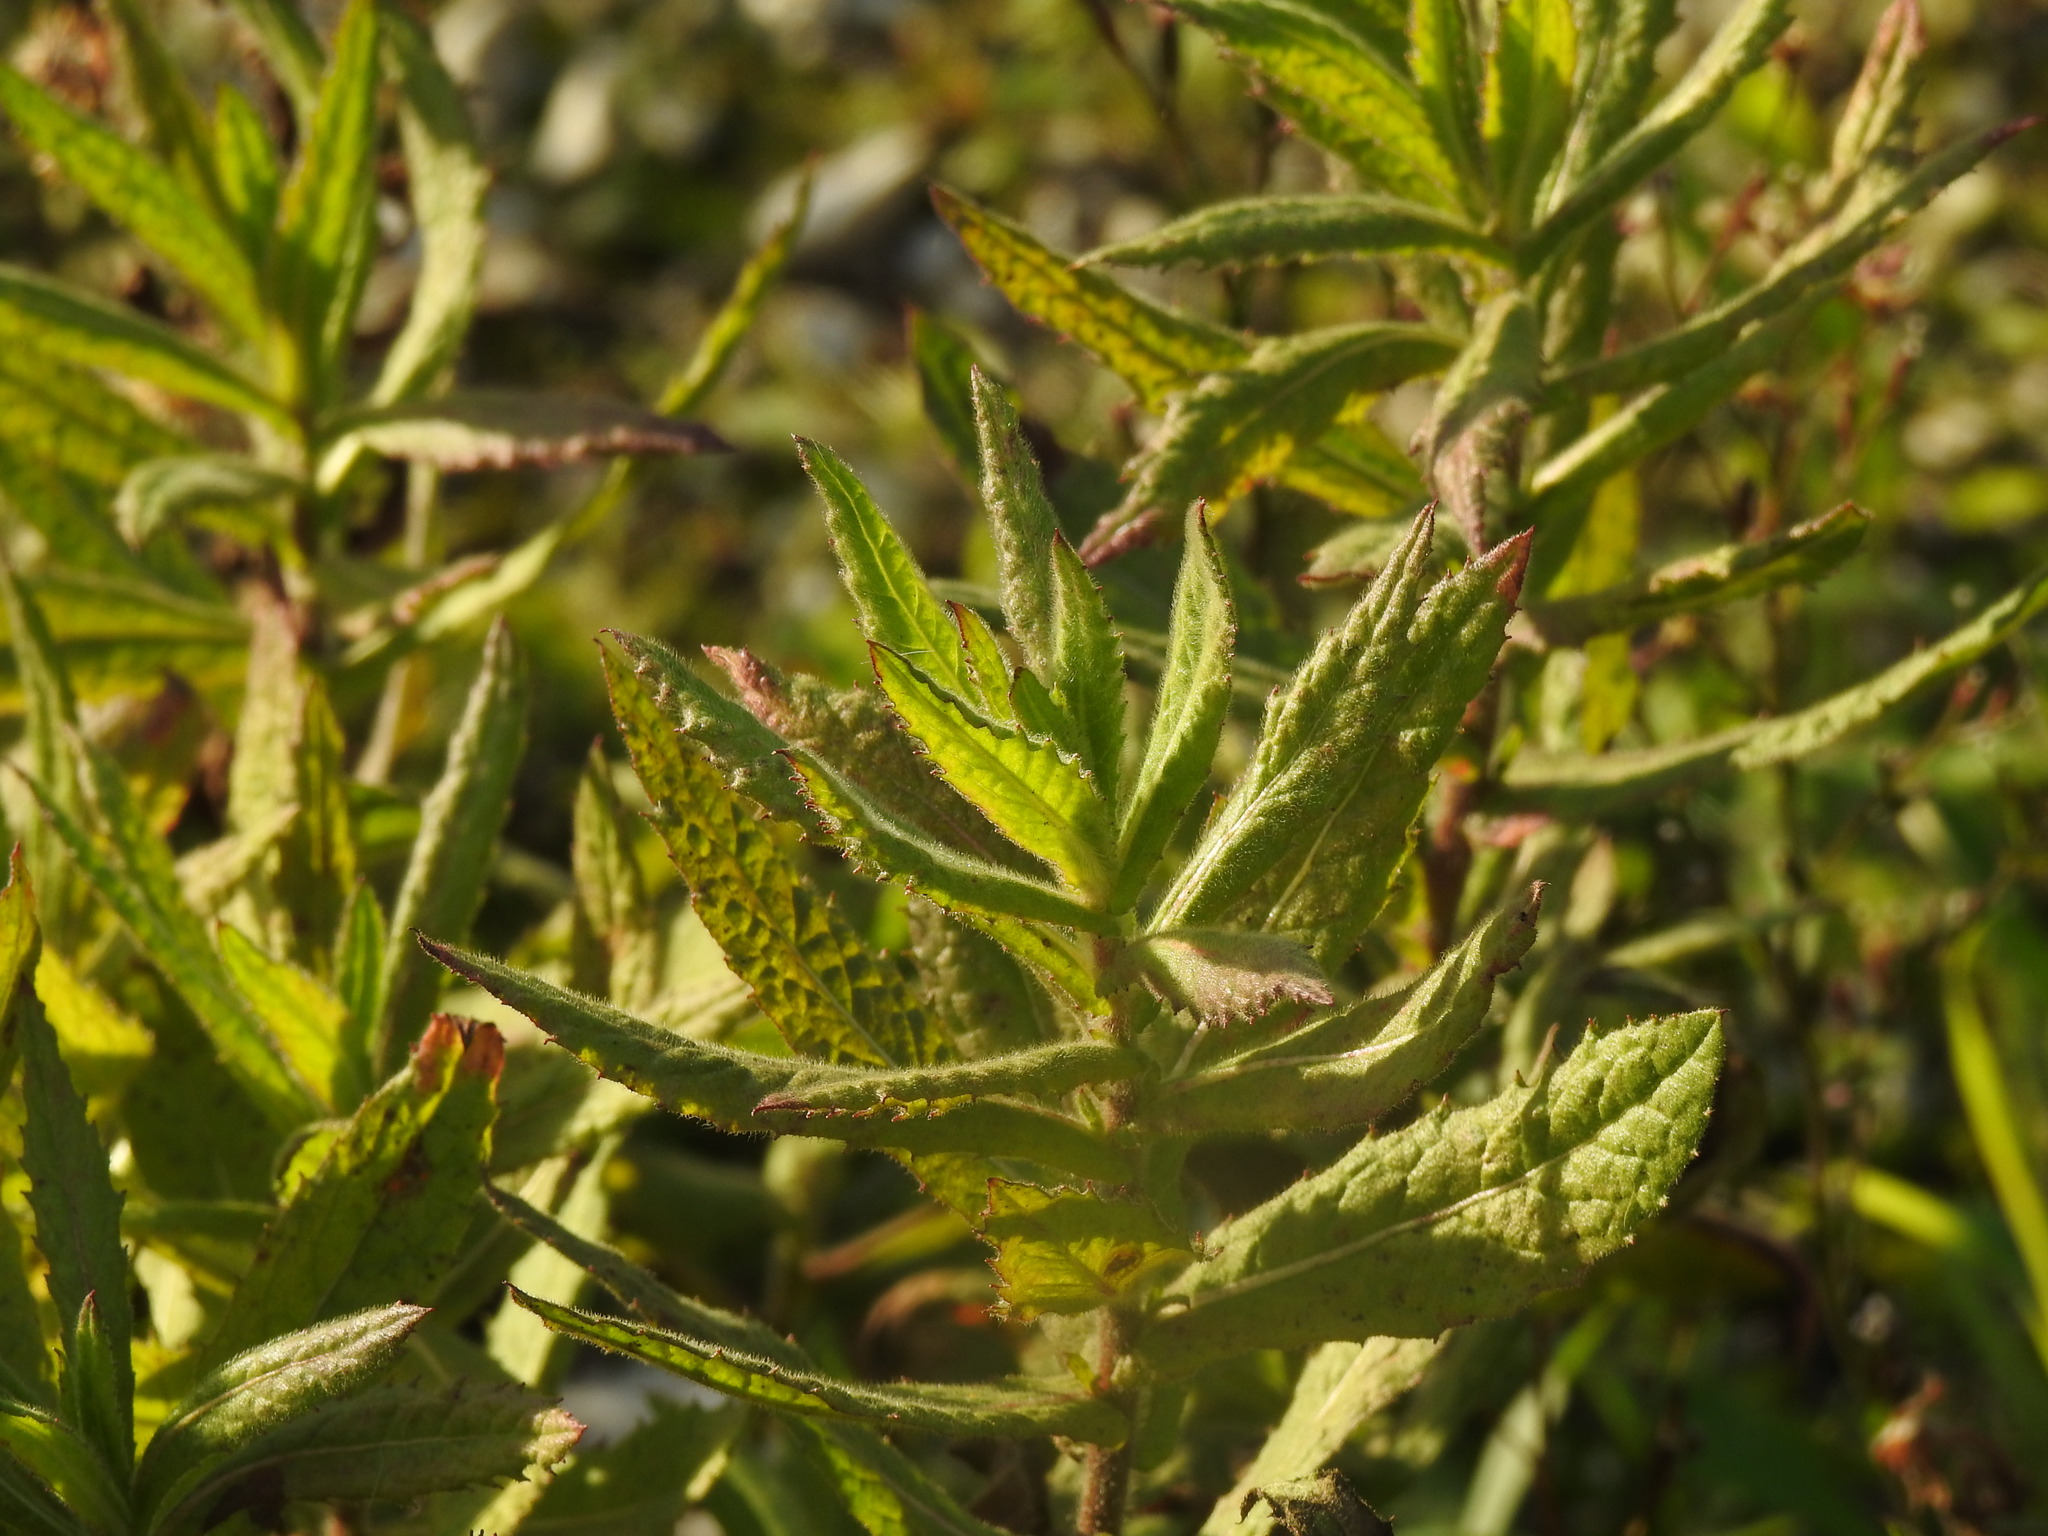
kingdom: Plantae
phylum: Tracheophyta
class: Magnoliopsida
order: Asterales
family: Asteraceae
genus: Dittrichia
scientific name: Dittrichia viscosa
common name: Woody fleabane
